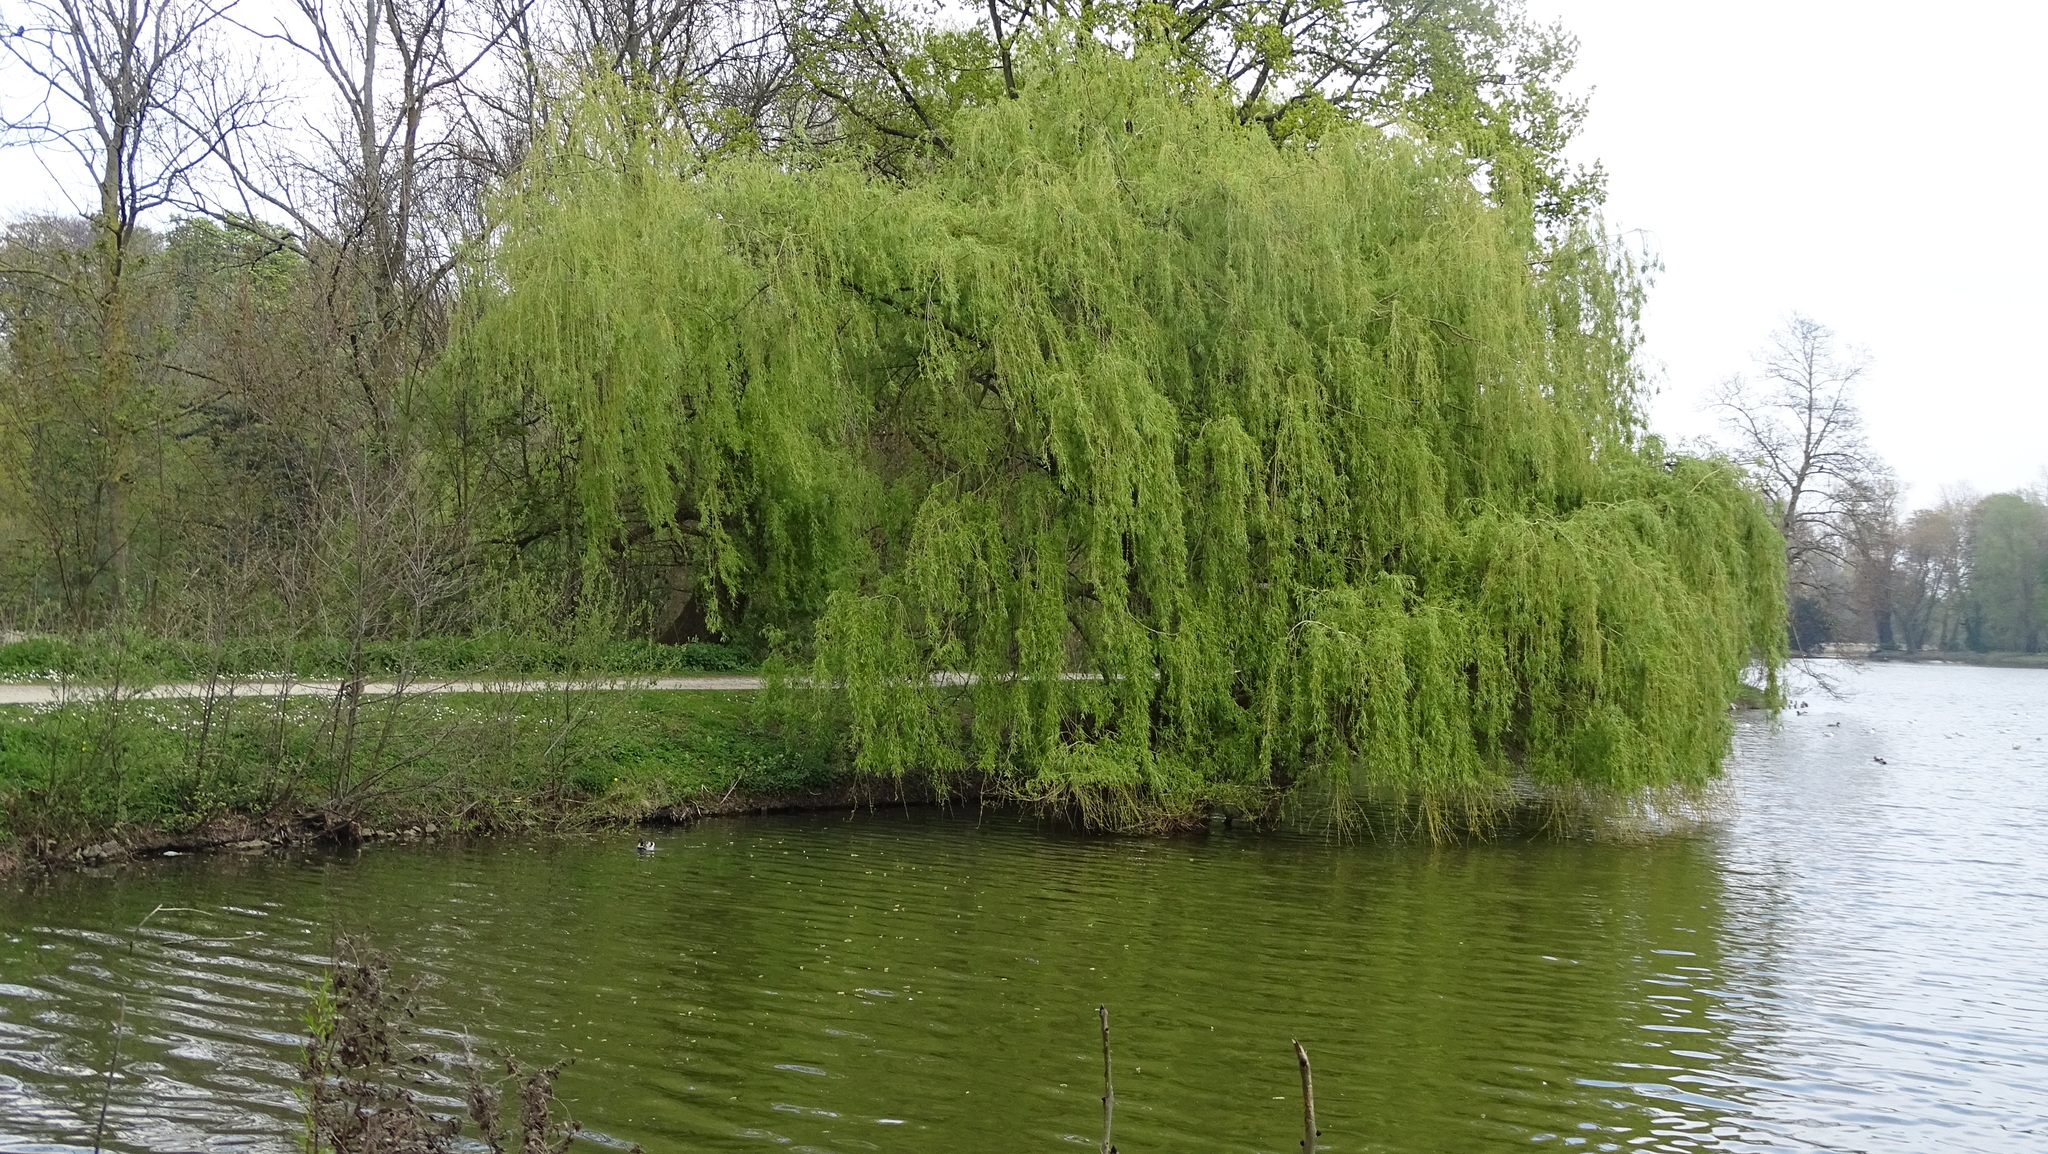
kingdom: Plantae
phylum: Tracheophyta
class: Magnoliopsida
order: Malpighiales
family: Salicaceae
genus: Salix
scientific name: Salix babylonica
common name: Weeping willow
